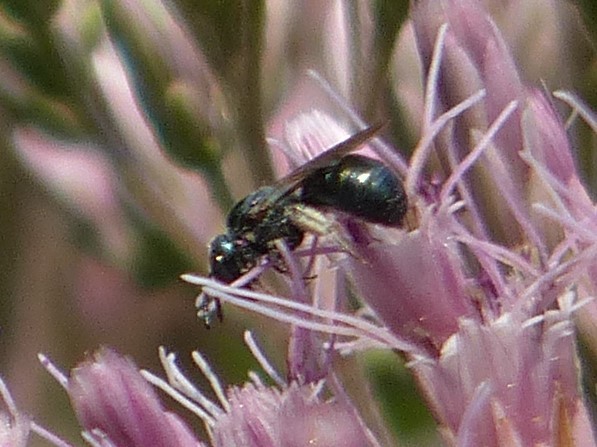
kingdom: Animalia
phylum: Arthropoda
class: Insecta
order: Hymenoptera
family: Apidae
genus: Zadontomerus
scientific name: Zadontomerus
